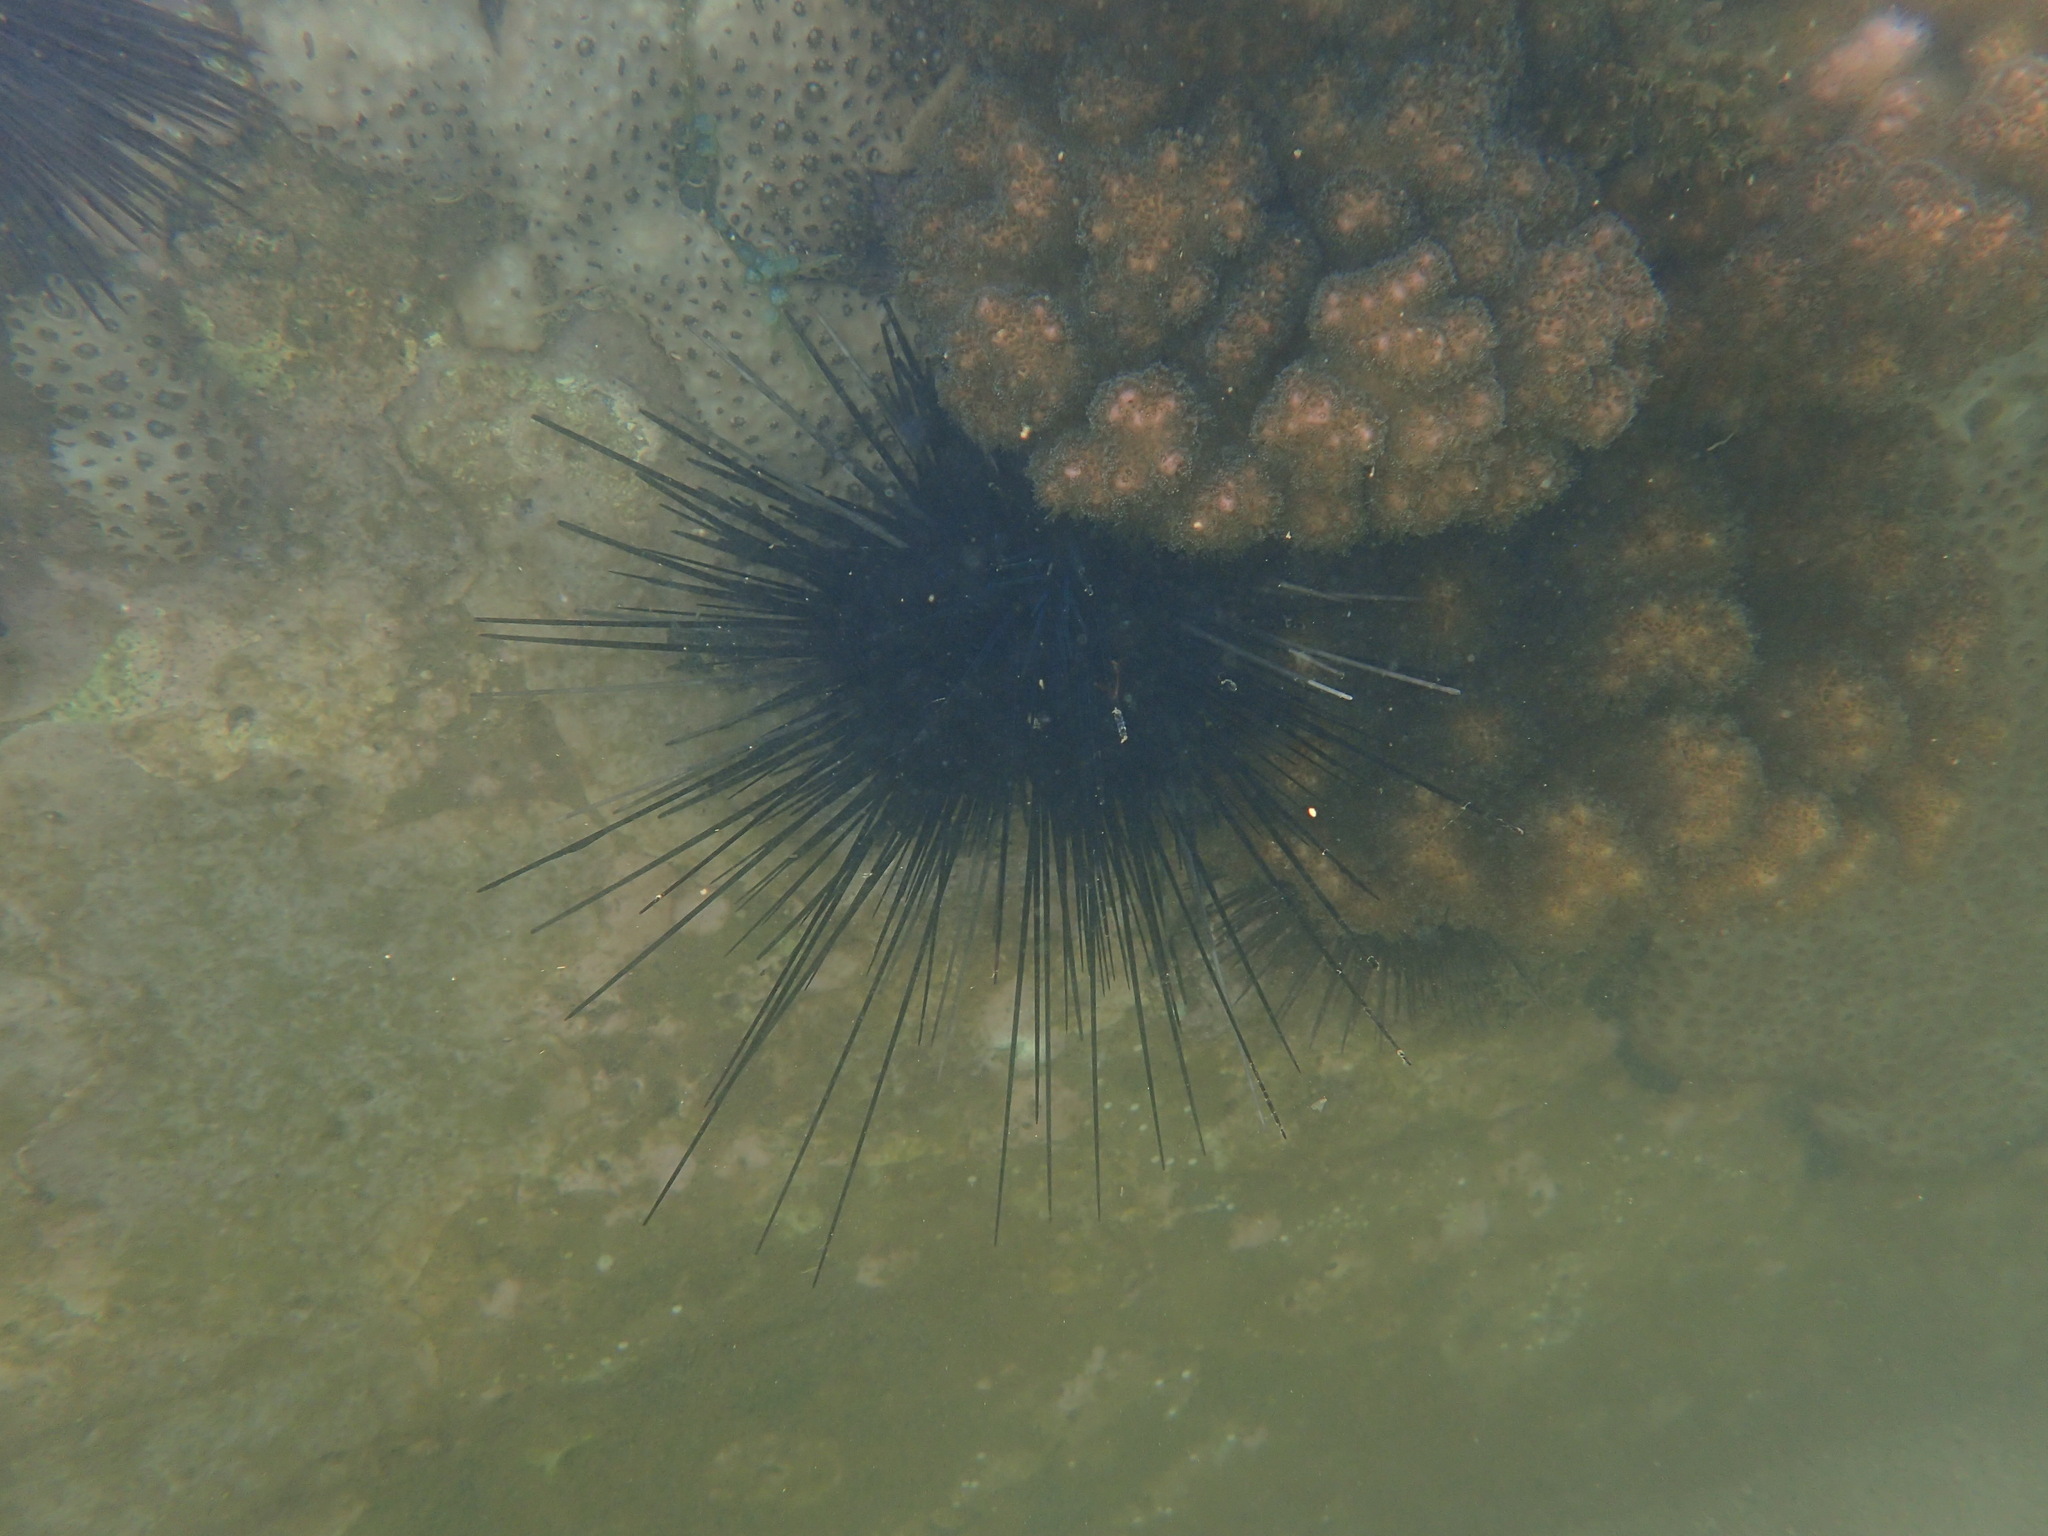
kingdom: Animalia
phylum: Echinodermata
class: Echinoidea
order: Diadematoida
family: Diadematidae
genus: Diadema
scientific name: Diadema savignyi
